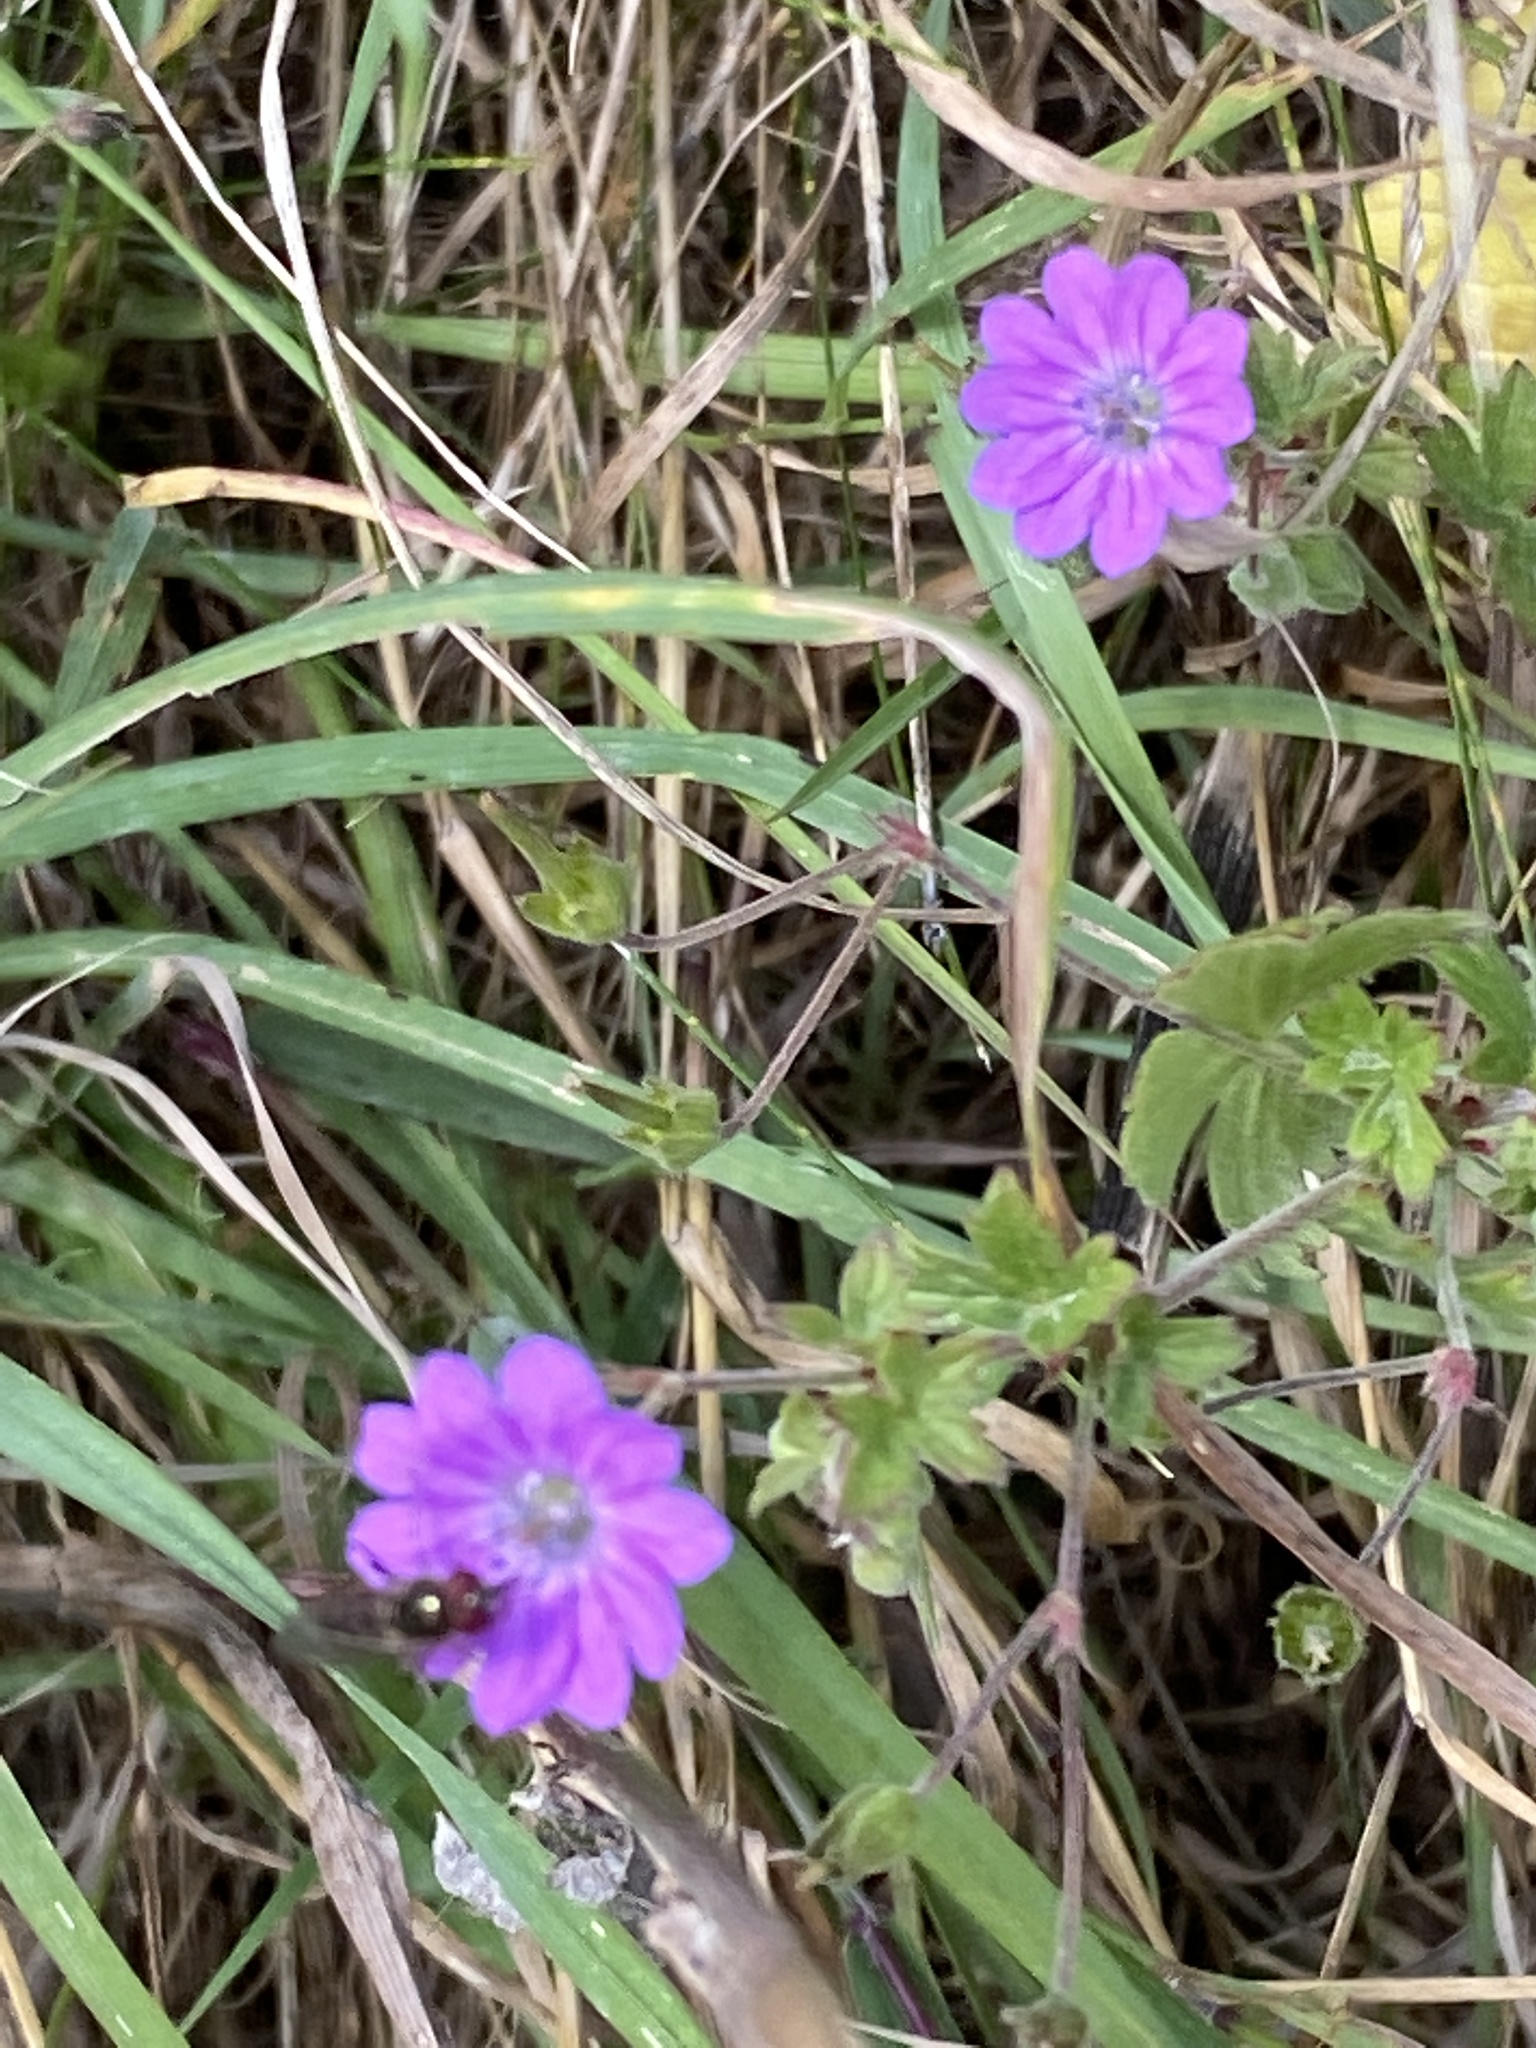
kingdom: Plantae
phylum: Tracheophyta
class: Magnoliopsida
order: Geraniales
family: Geraniaceae
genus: Geranium
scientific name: Geranium molle
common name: Dove's-foot crane's-bill
